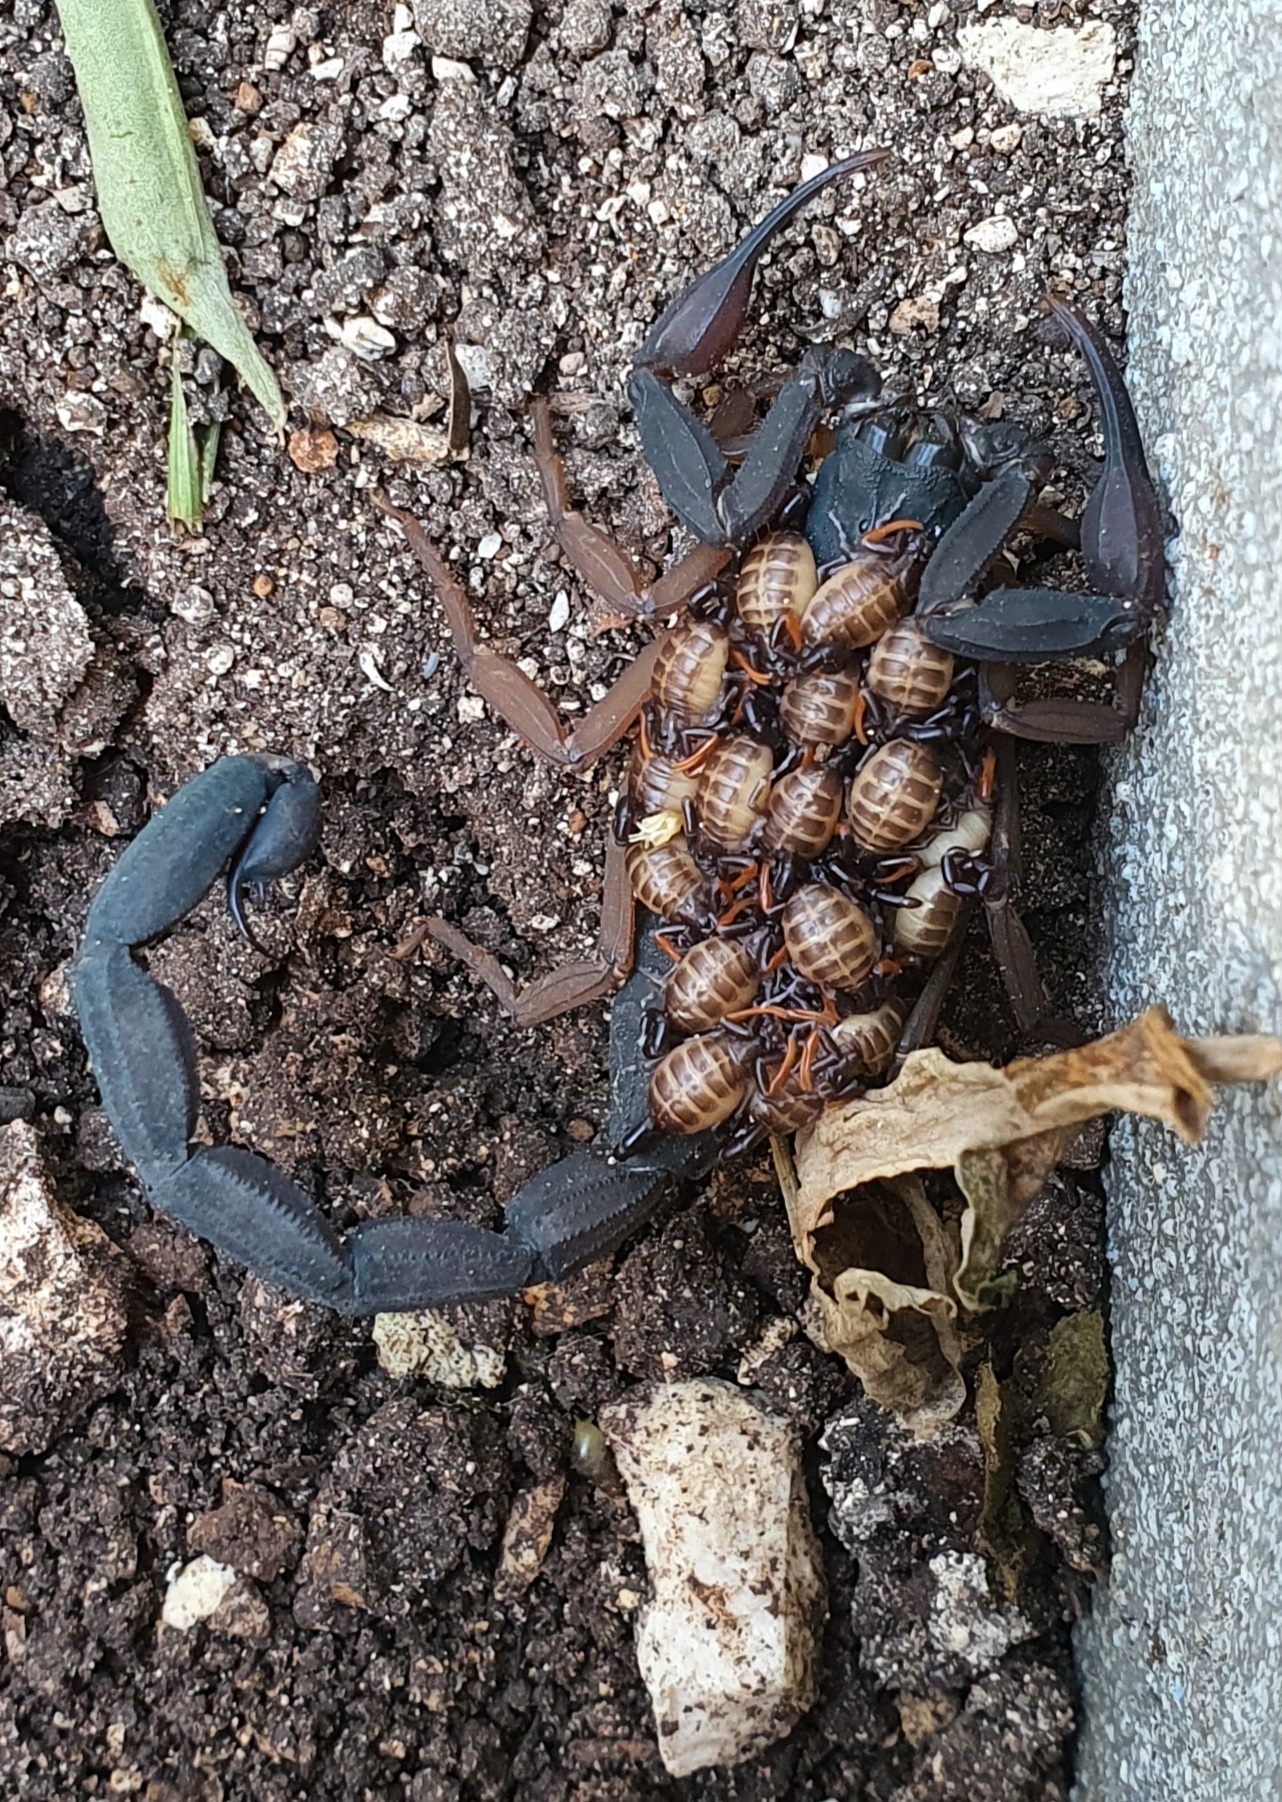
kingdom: Animalia
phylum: Arthropoda
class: Arachnida
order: Scorpiones
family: Buthidae
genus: Centruroides
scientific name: Centruroides gracilis
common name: Scorpions
